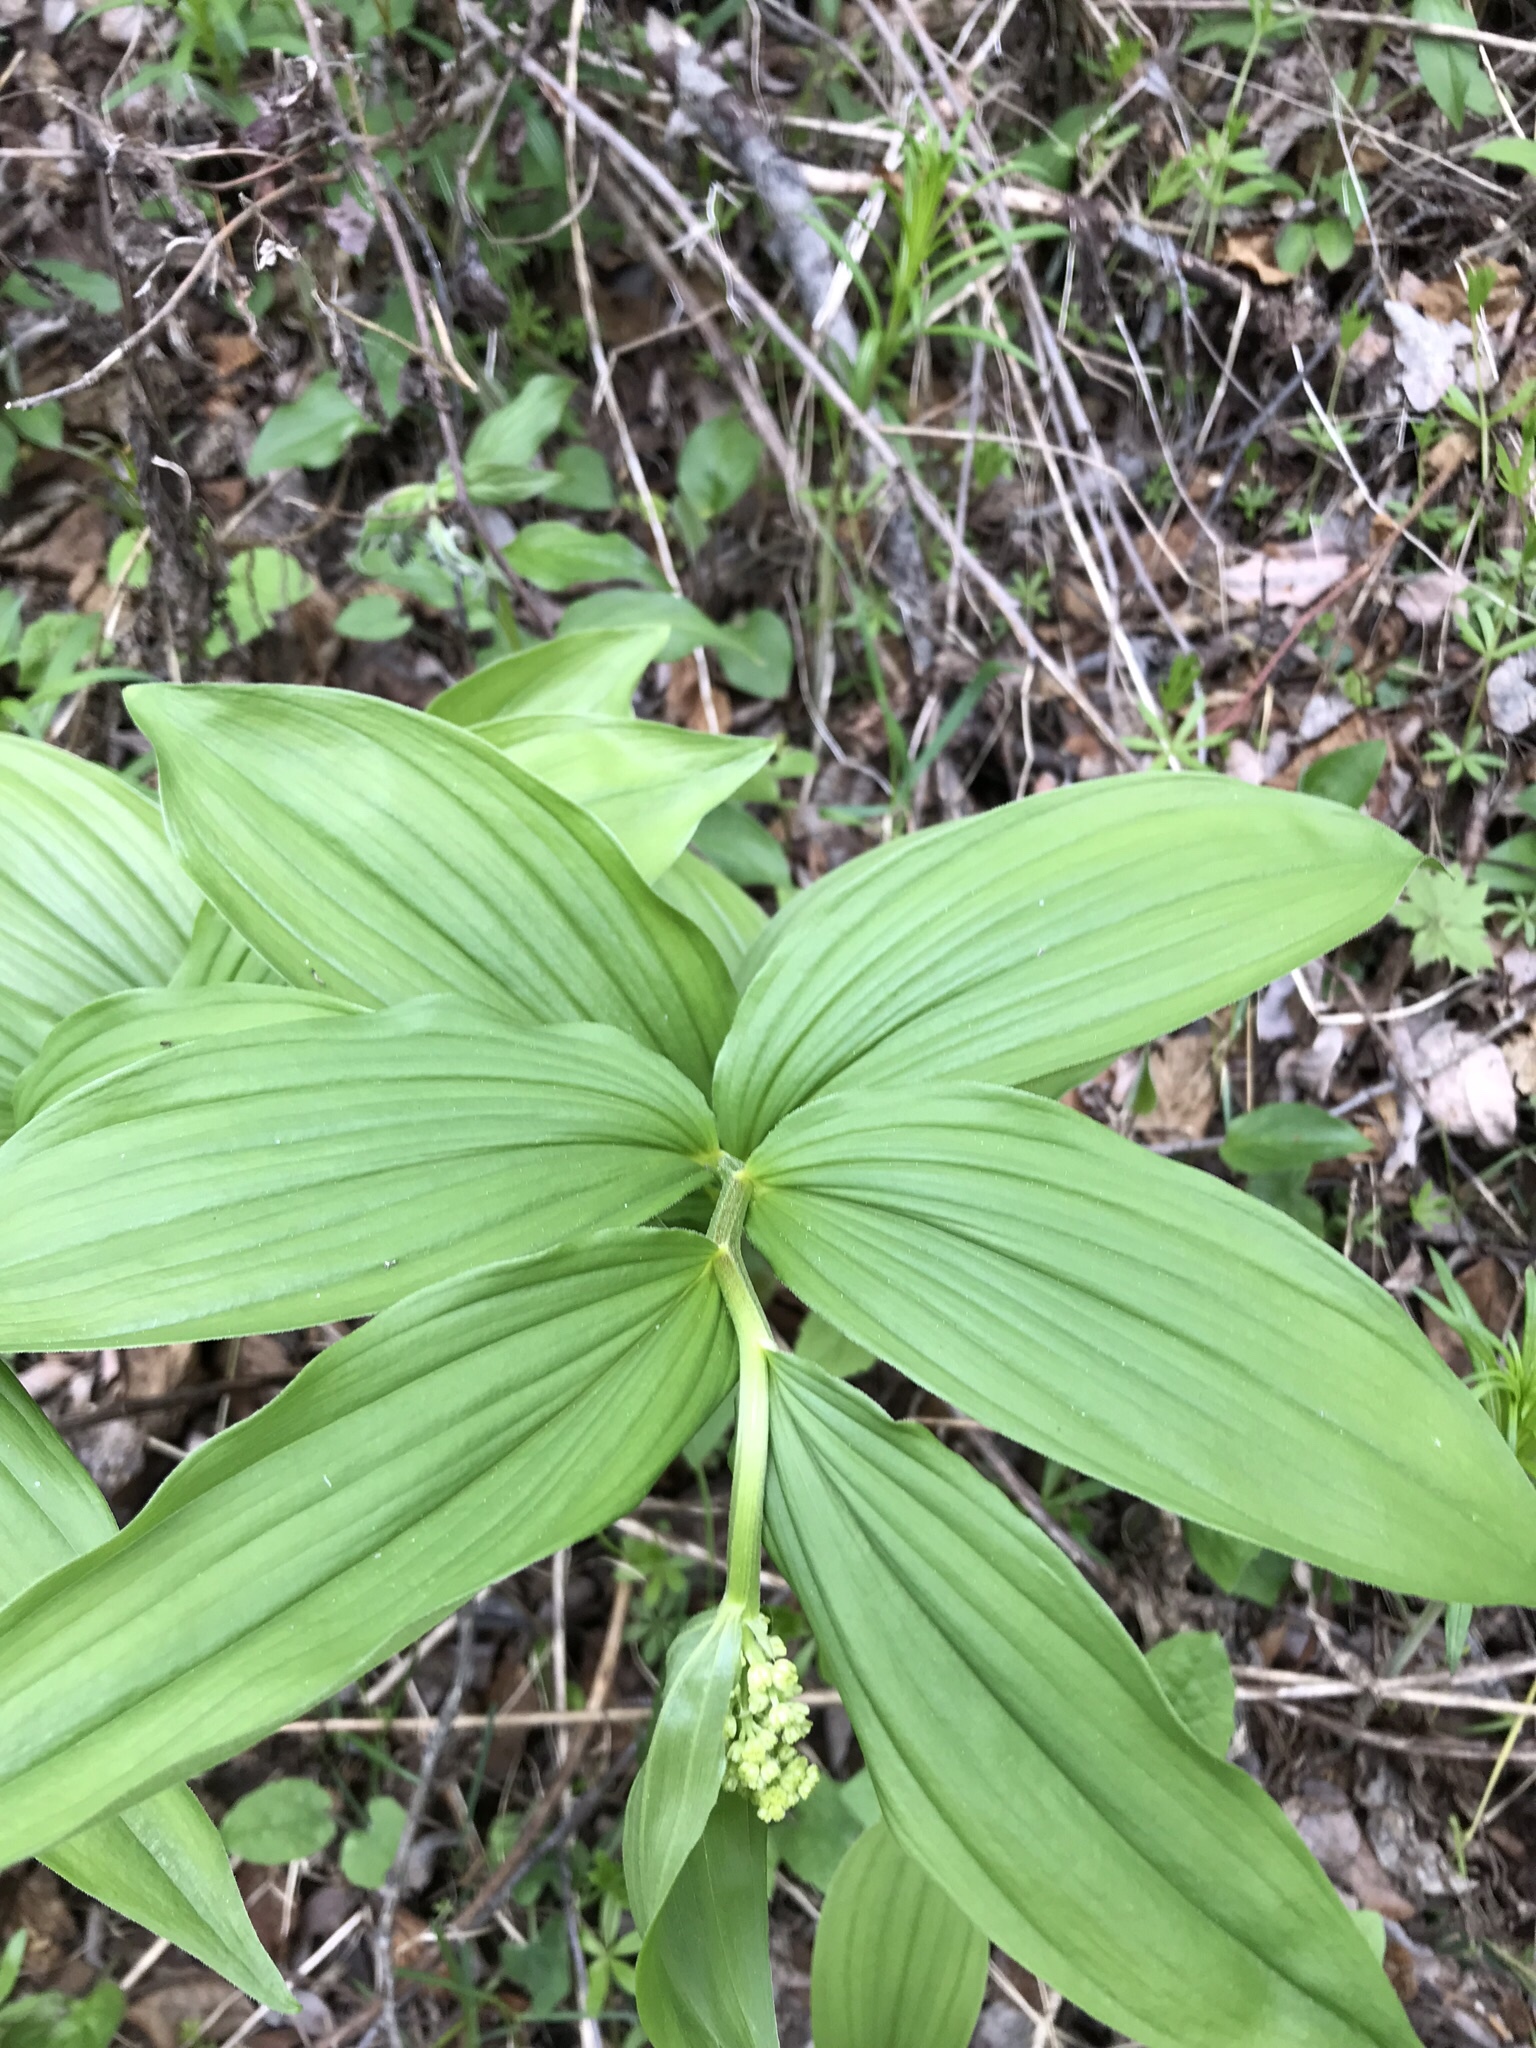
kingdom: Plantae
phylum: Tracheophyta
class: Liliopsida
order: Asparagales
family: Asparagaceae
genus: Maianthemum
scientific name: Maianthemum racemosum
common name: False spikenard
